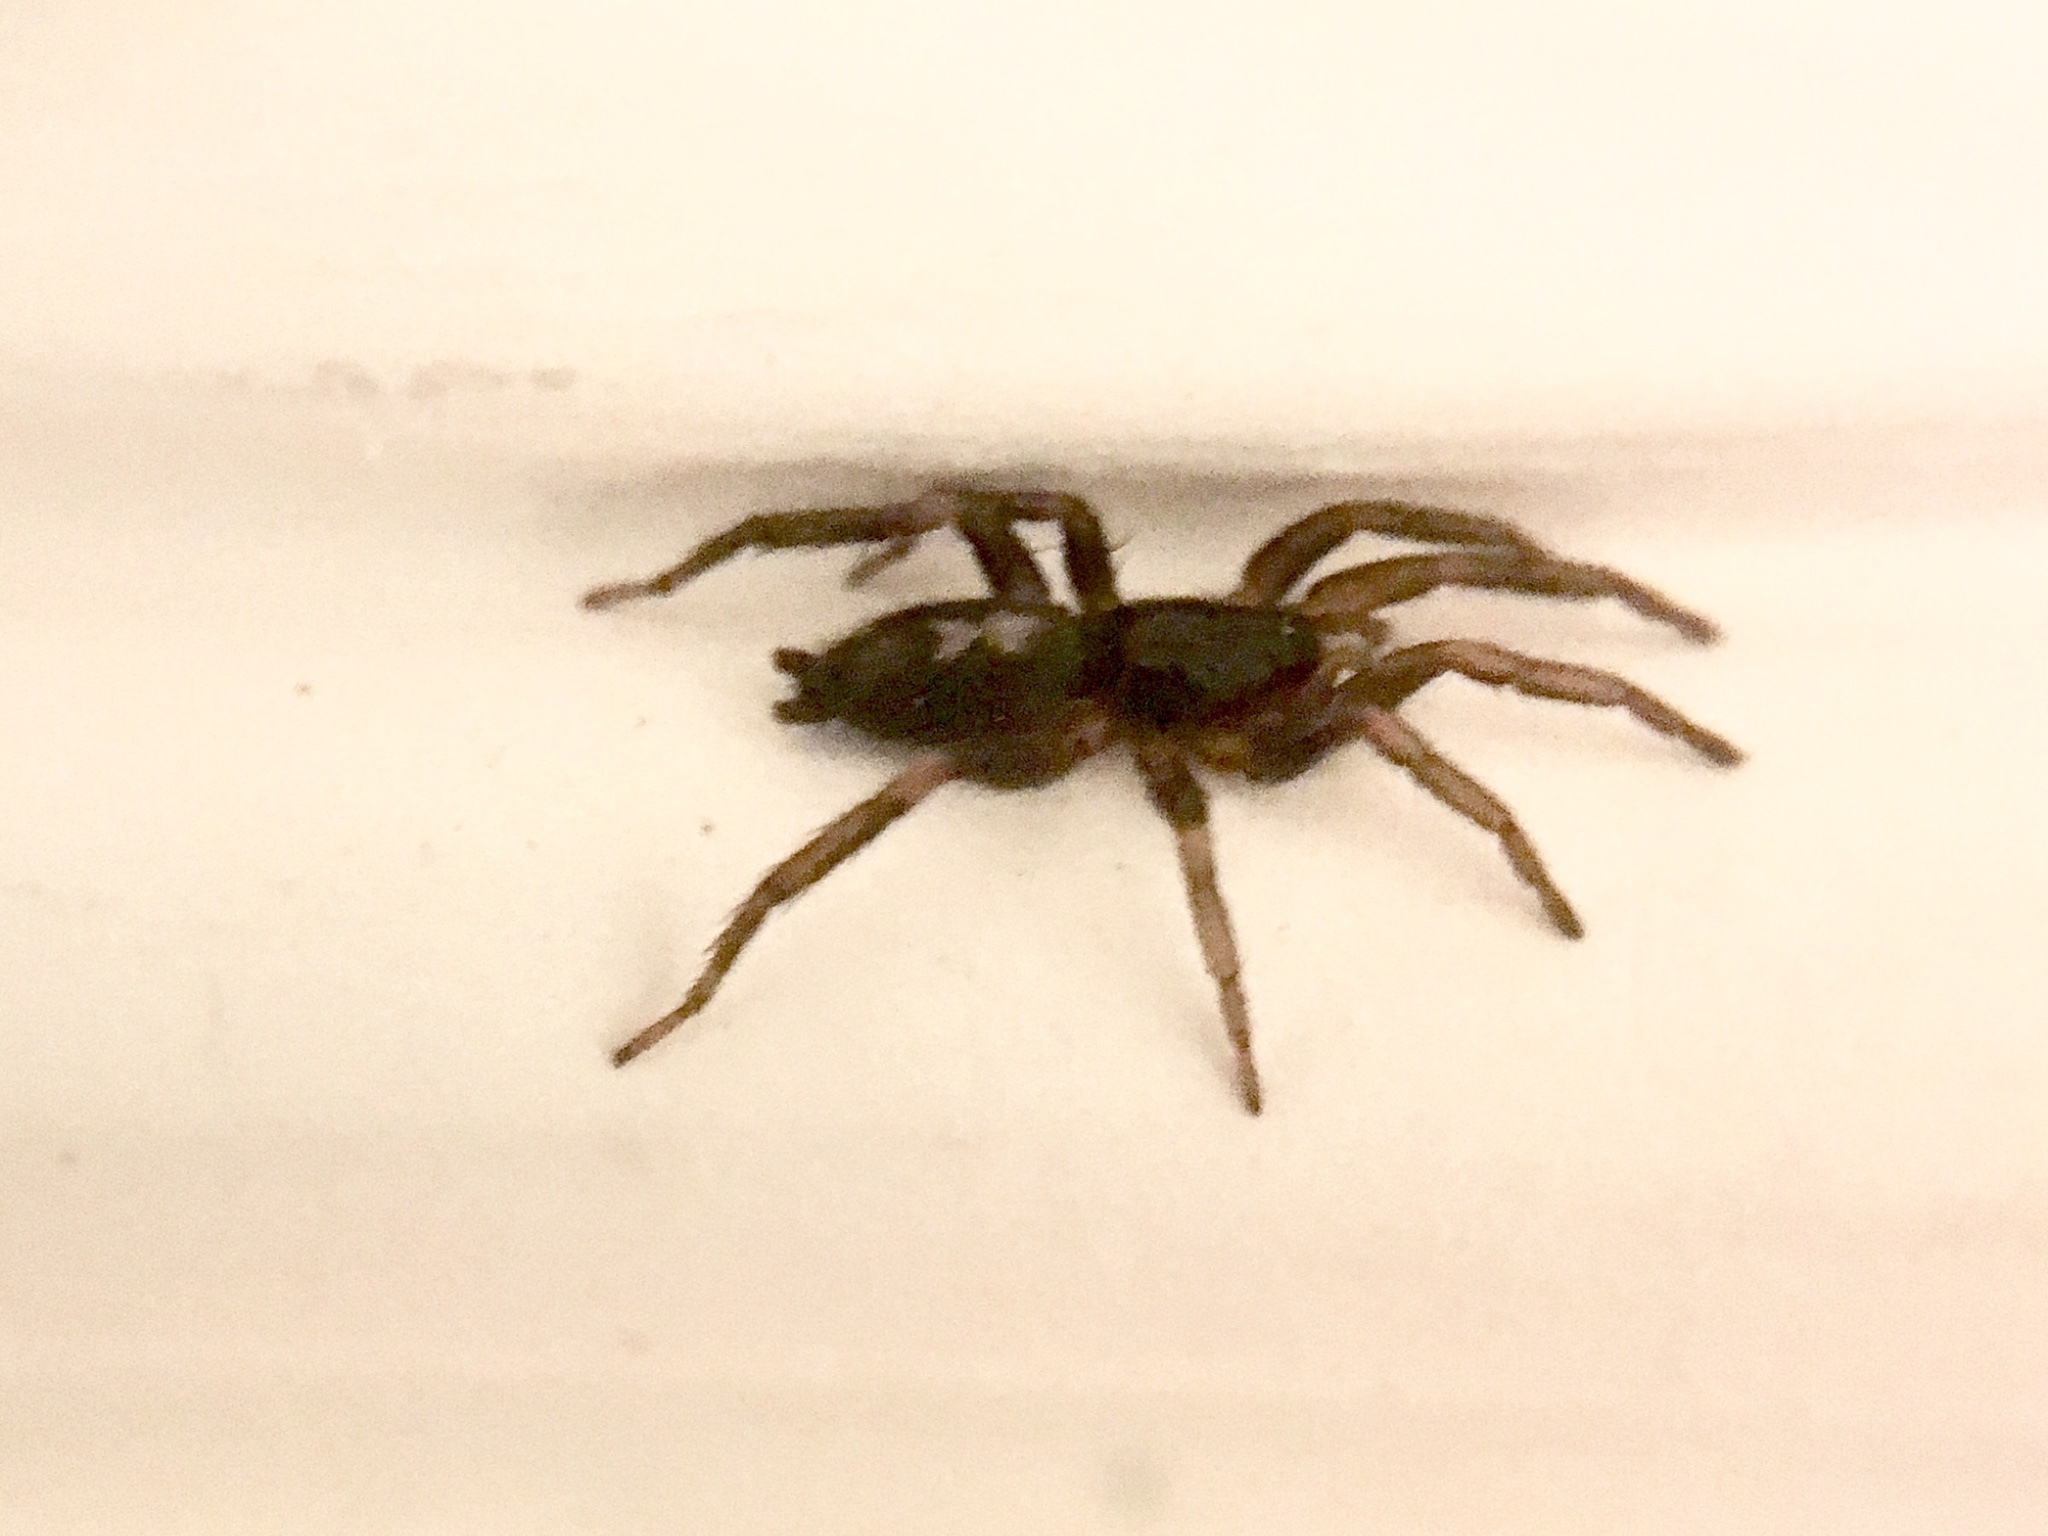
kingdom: Animalia
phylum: Arthropoda
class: Arachnida
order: Araneae
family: Gnaphosidae
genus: Herpyllus
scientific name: Herpyllus ecclesiasticus
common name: Eastern parson spider
